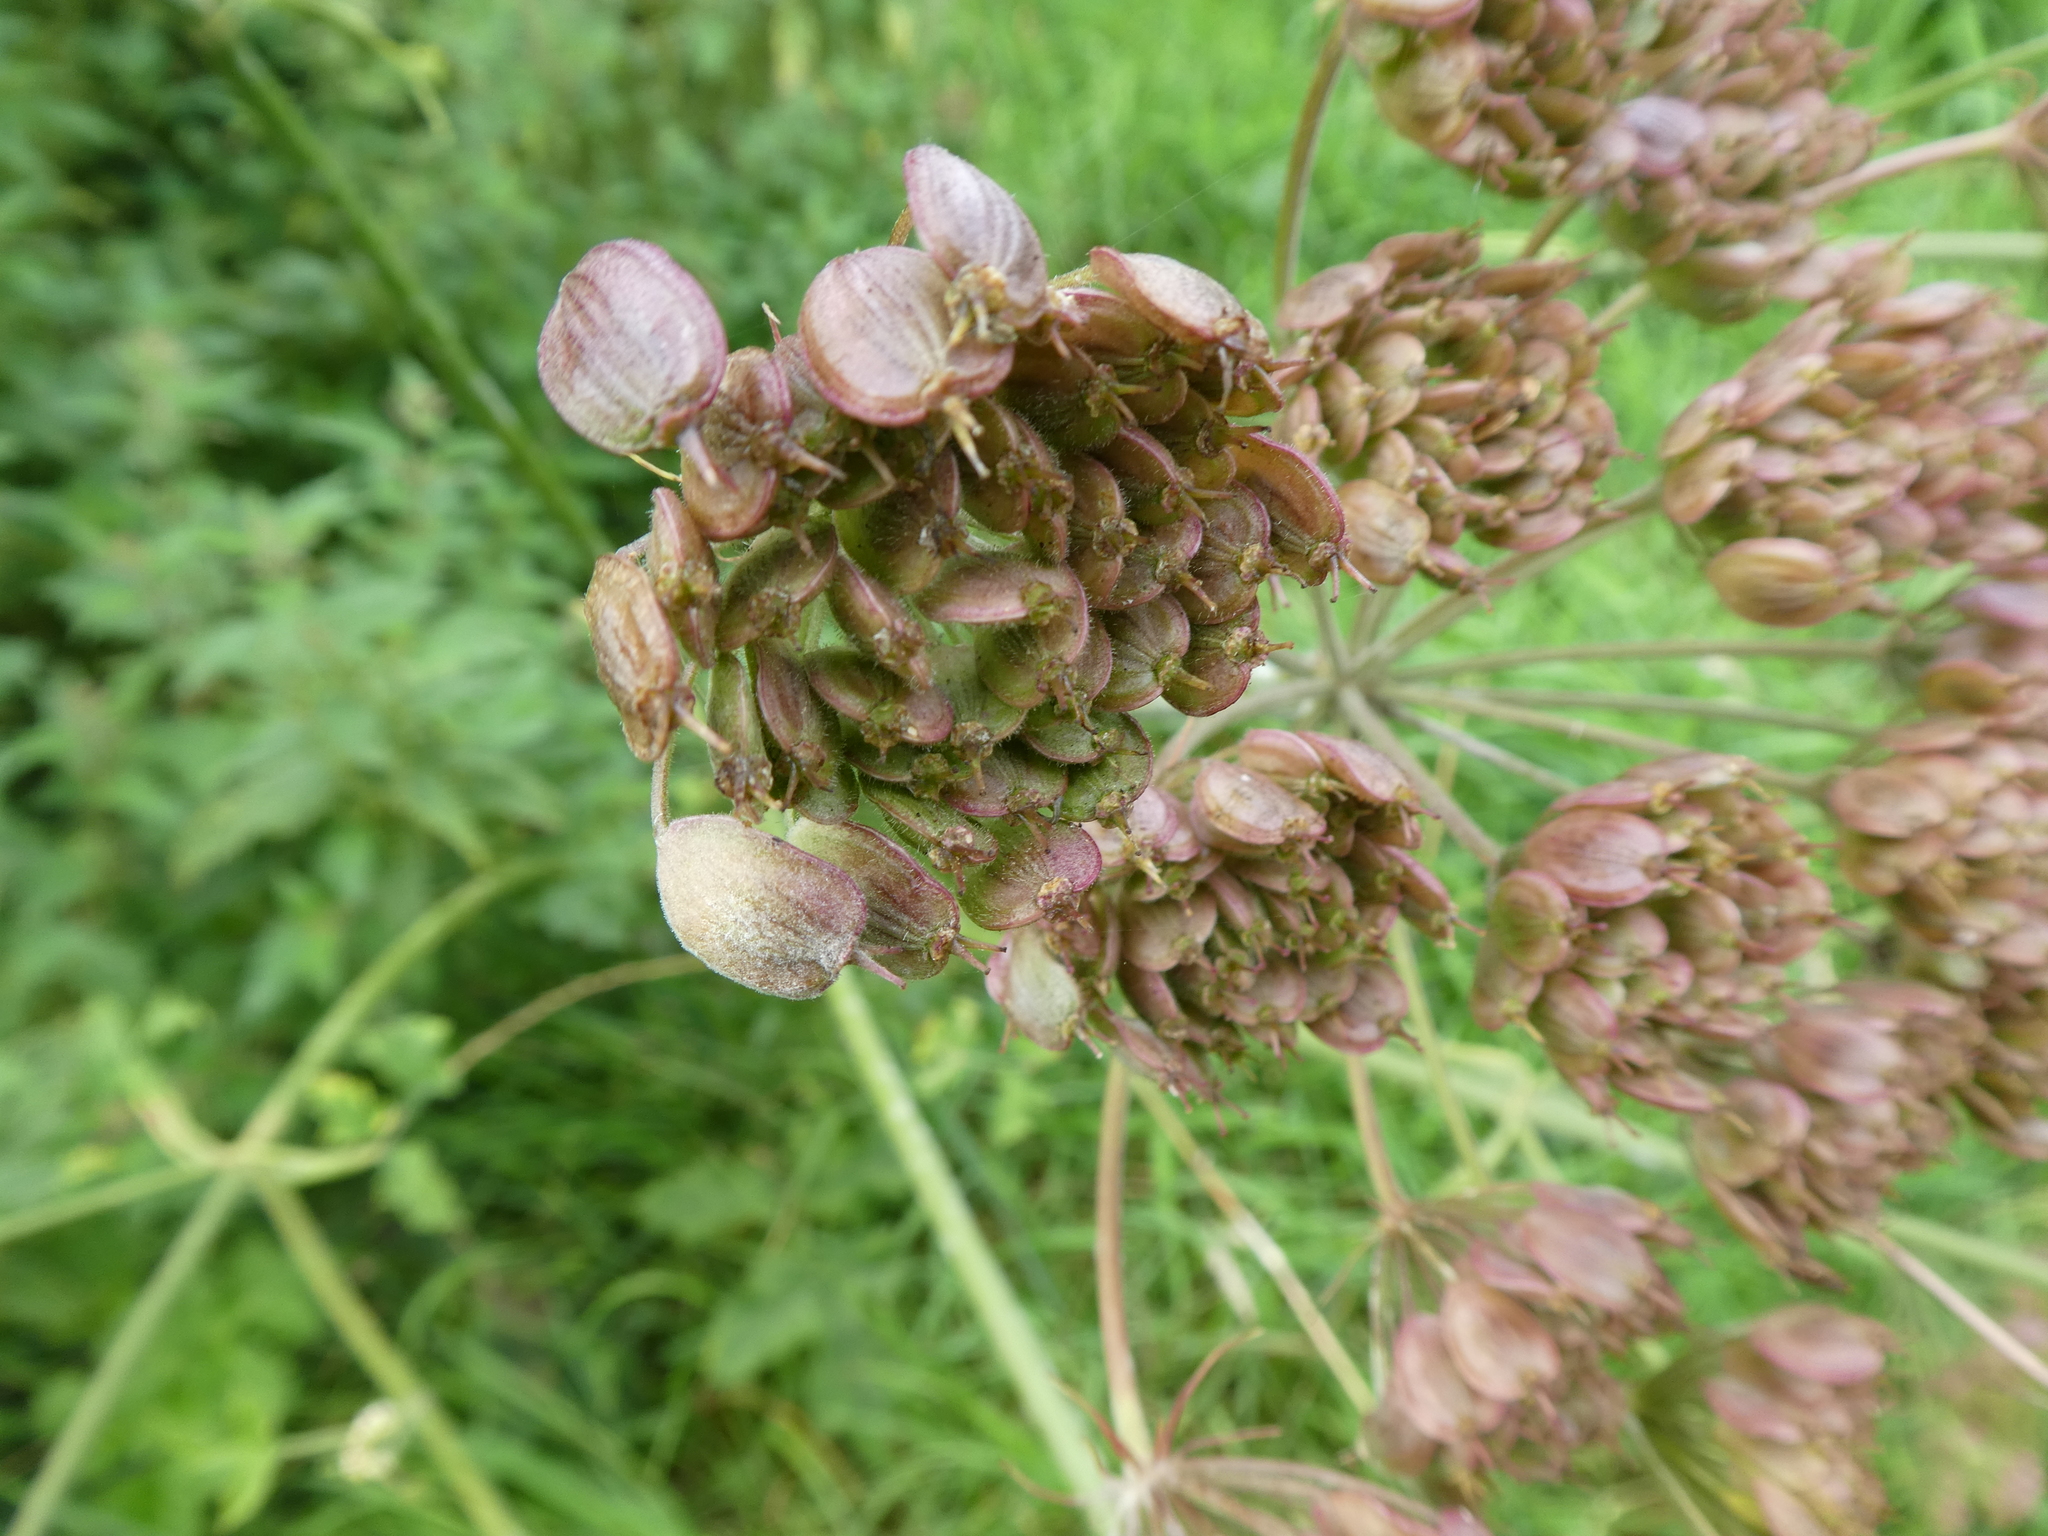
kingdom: Plantae
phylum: Tracheophyta
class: Magnoliopsida
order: Apiales
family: Apiaceae
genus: Heracleum
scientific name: Heracleum sphondylium
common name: Hogweed
